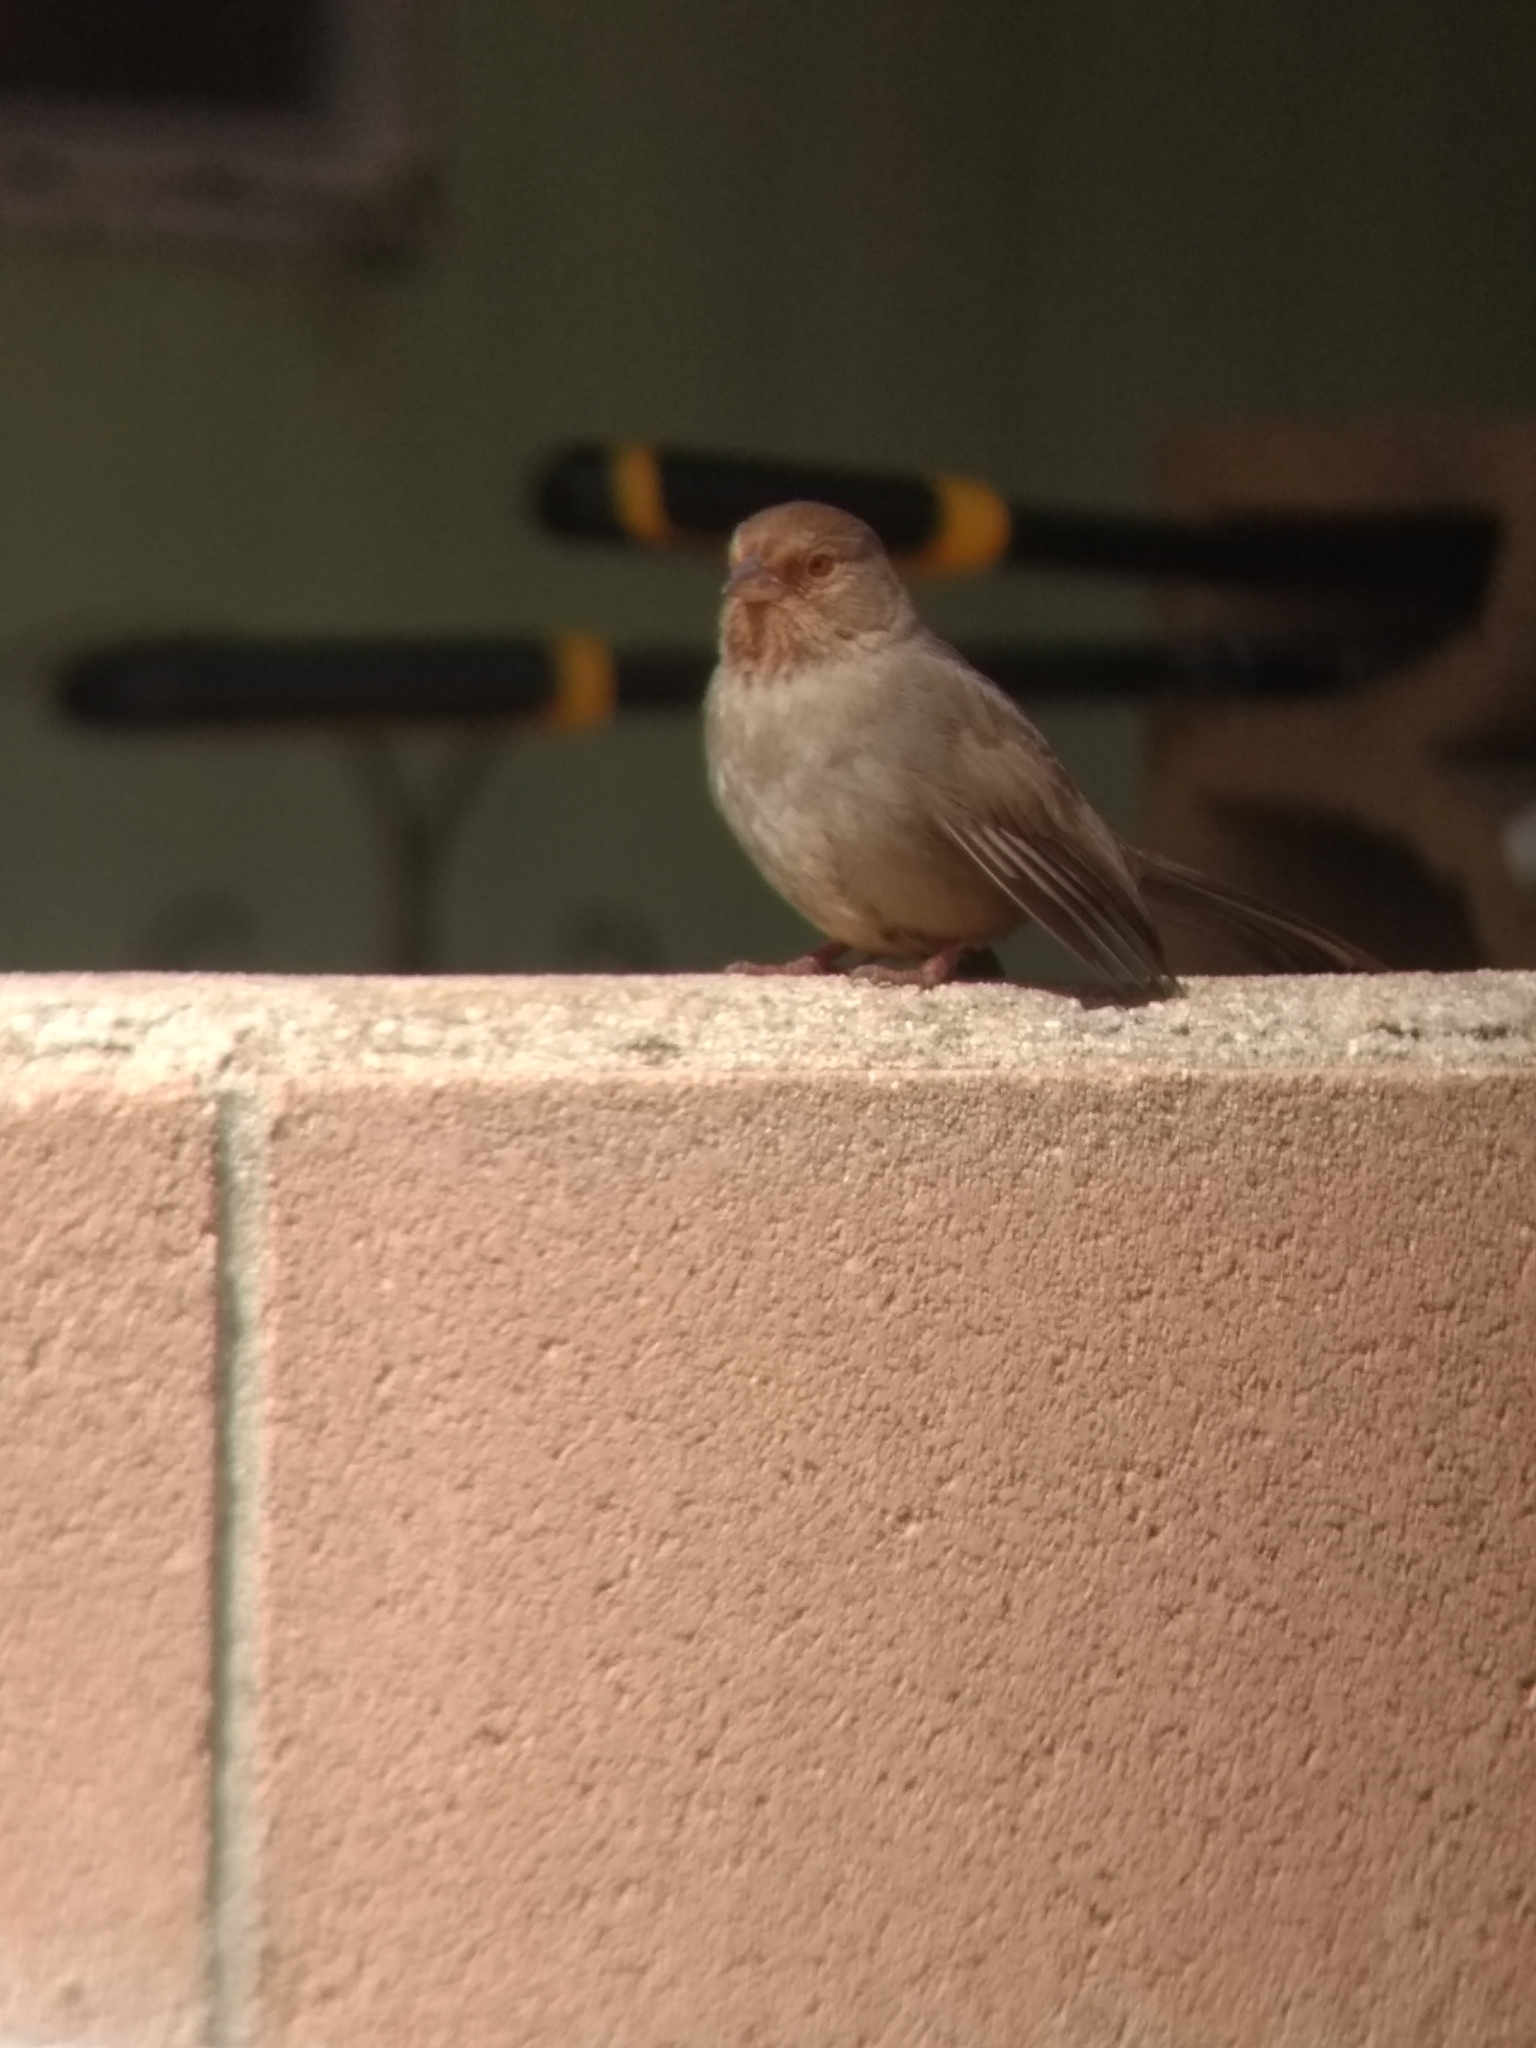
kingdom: Animalia
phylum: Chordata
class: Aves
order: Passeriformes
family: Passerellidae
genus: Melozone
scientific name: Melozone crissalis
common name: California towhee
